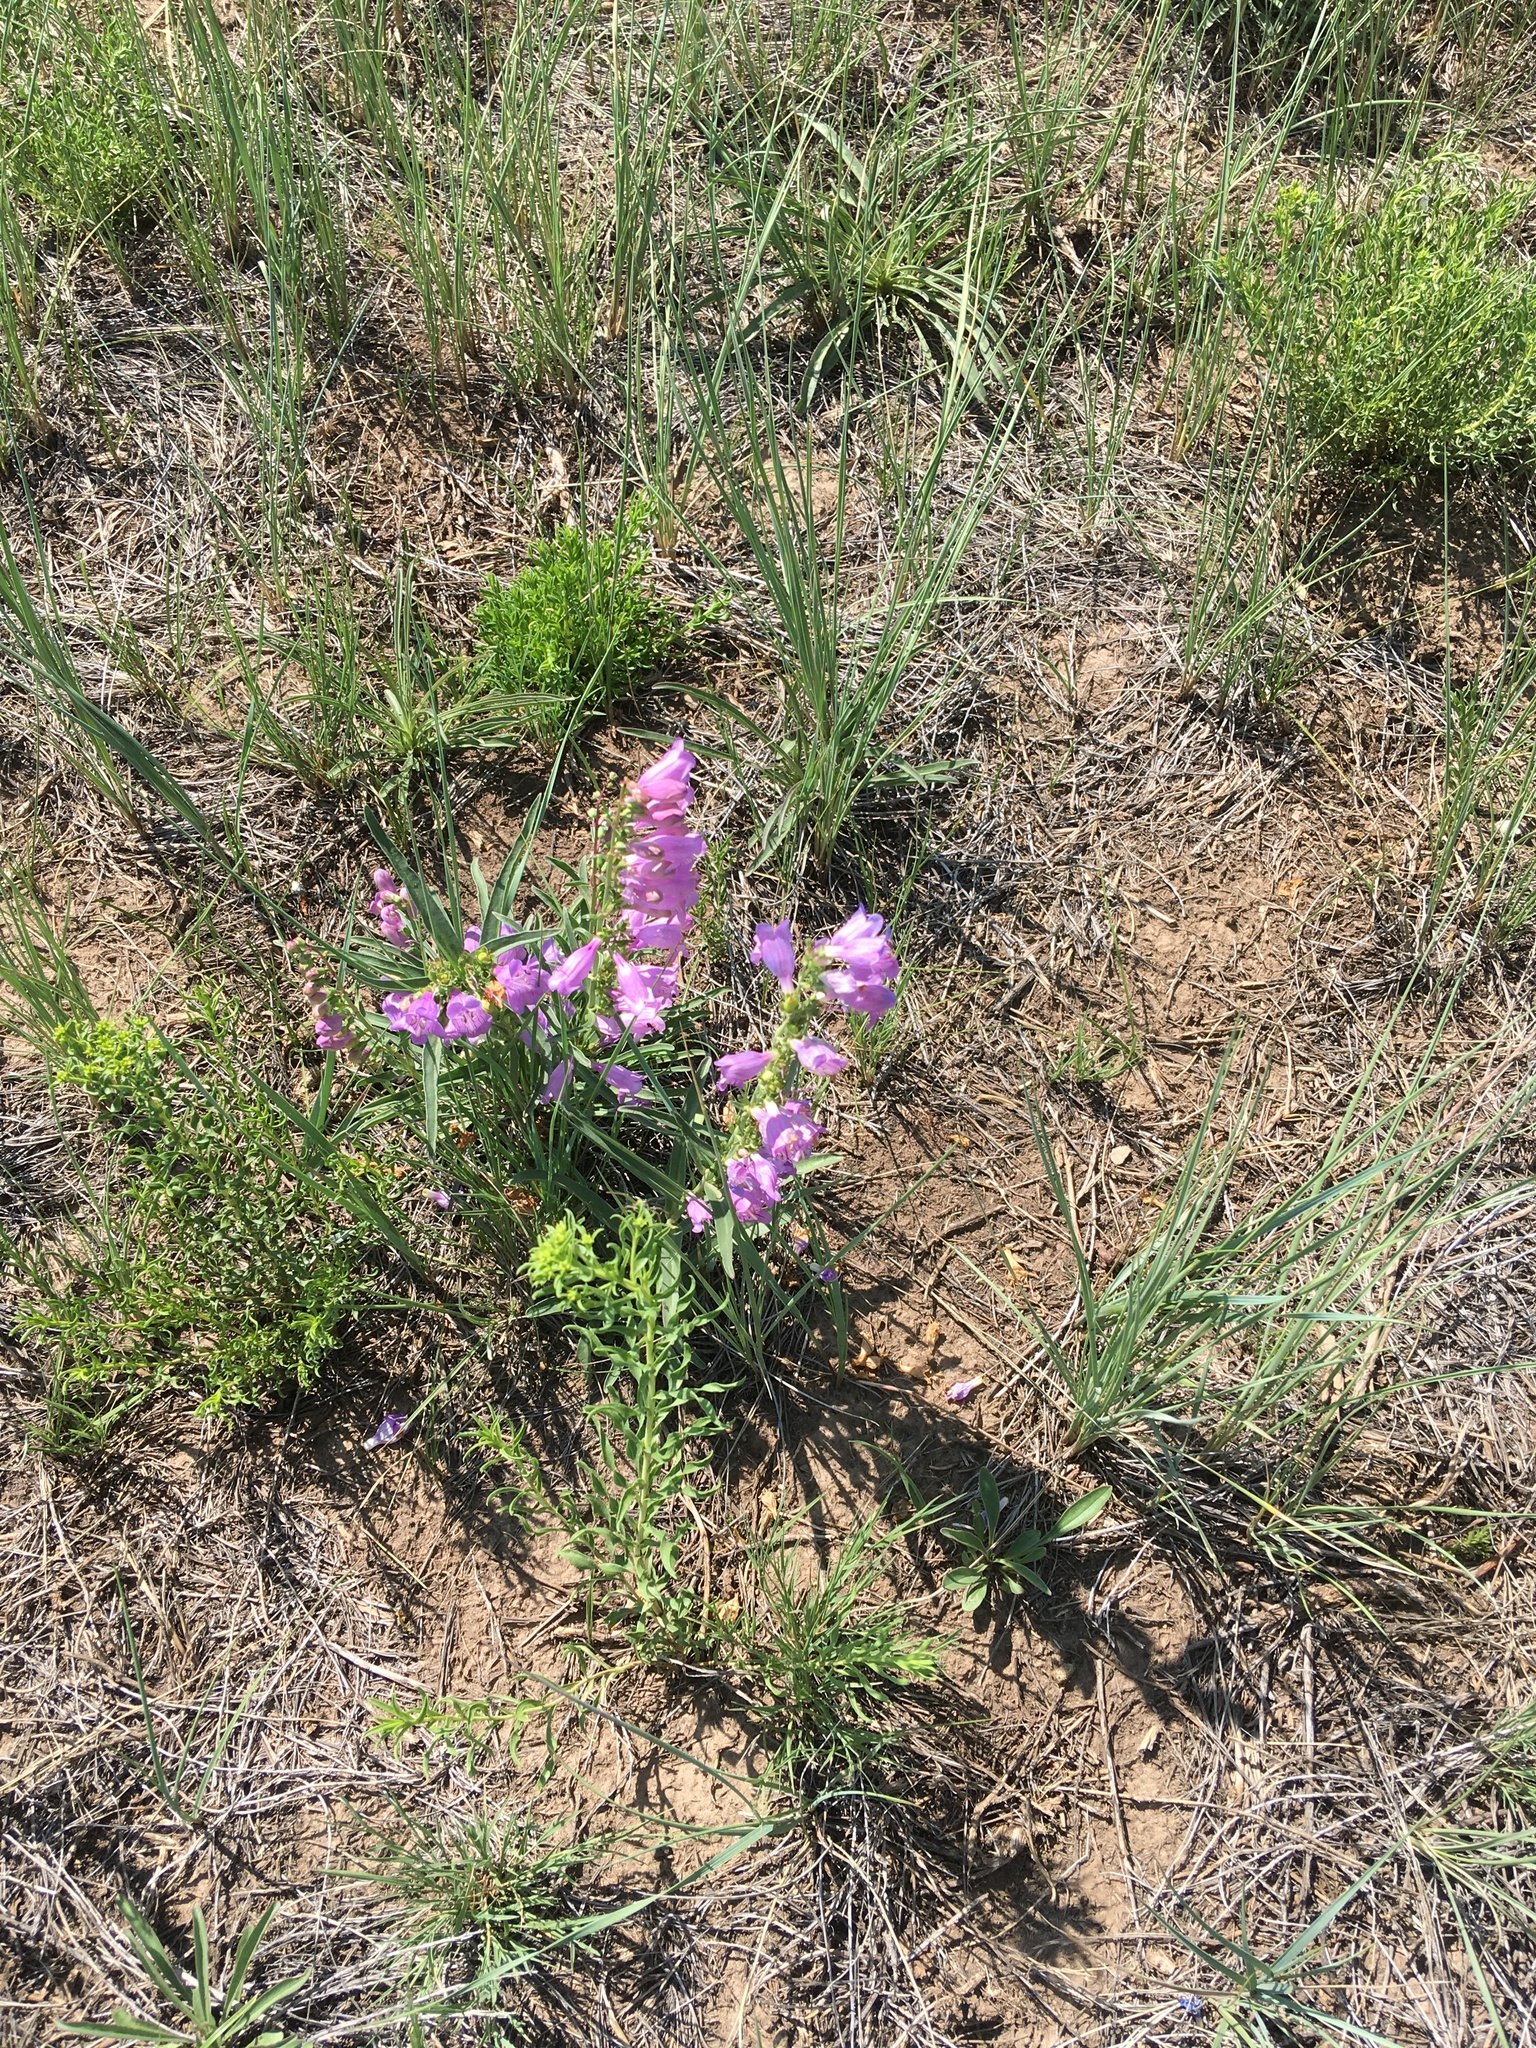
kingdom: Plantae
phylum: Tracheophyta
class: Magnoliopsida
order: Lamiales
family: Plantaginaceae
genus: Penstemon
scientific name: Penstemon virgatus
